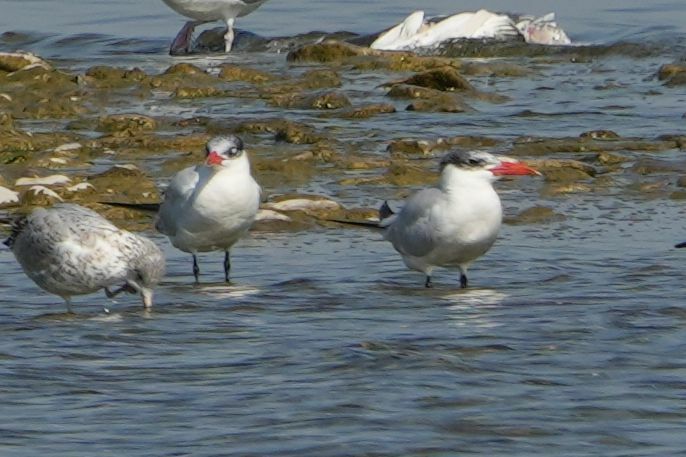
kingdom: Animalia
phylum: Chordata
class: Aves
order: Charadriiformes
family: Laridae
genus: Hydroprogne
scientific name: Hydroprogne caspia
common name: Caspian tern
